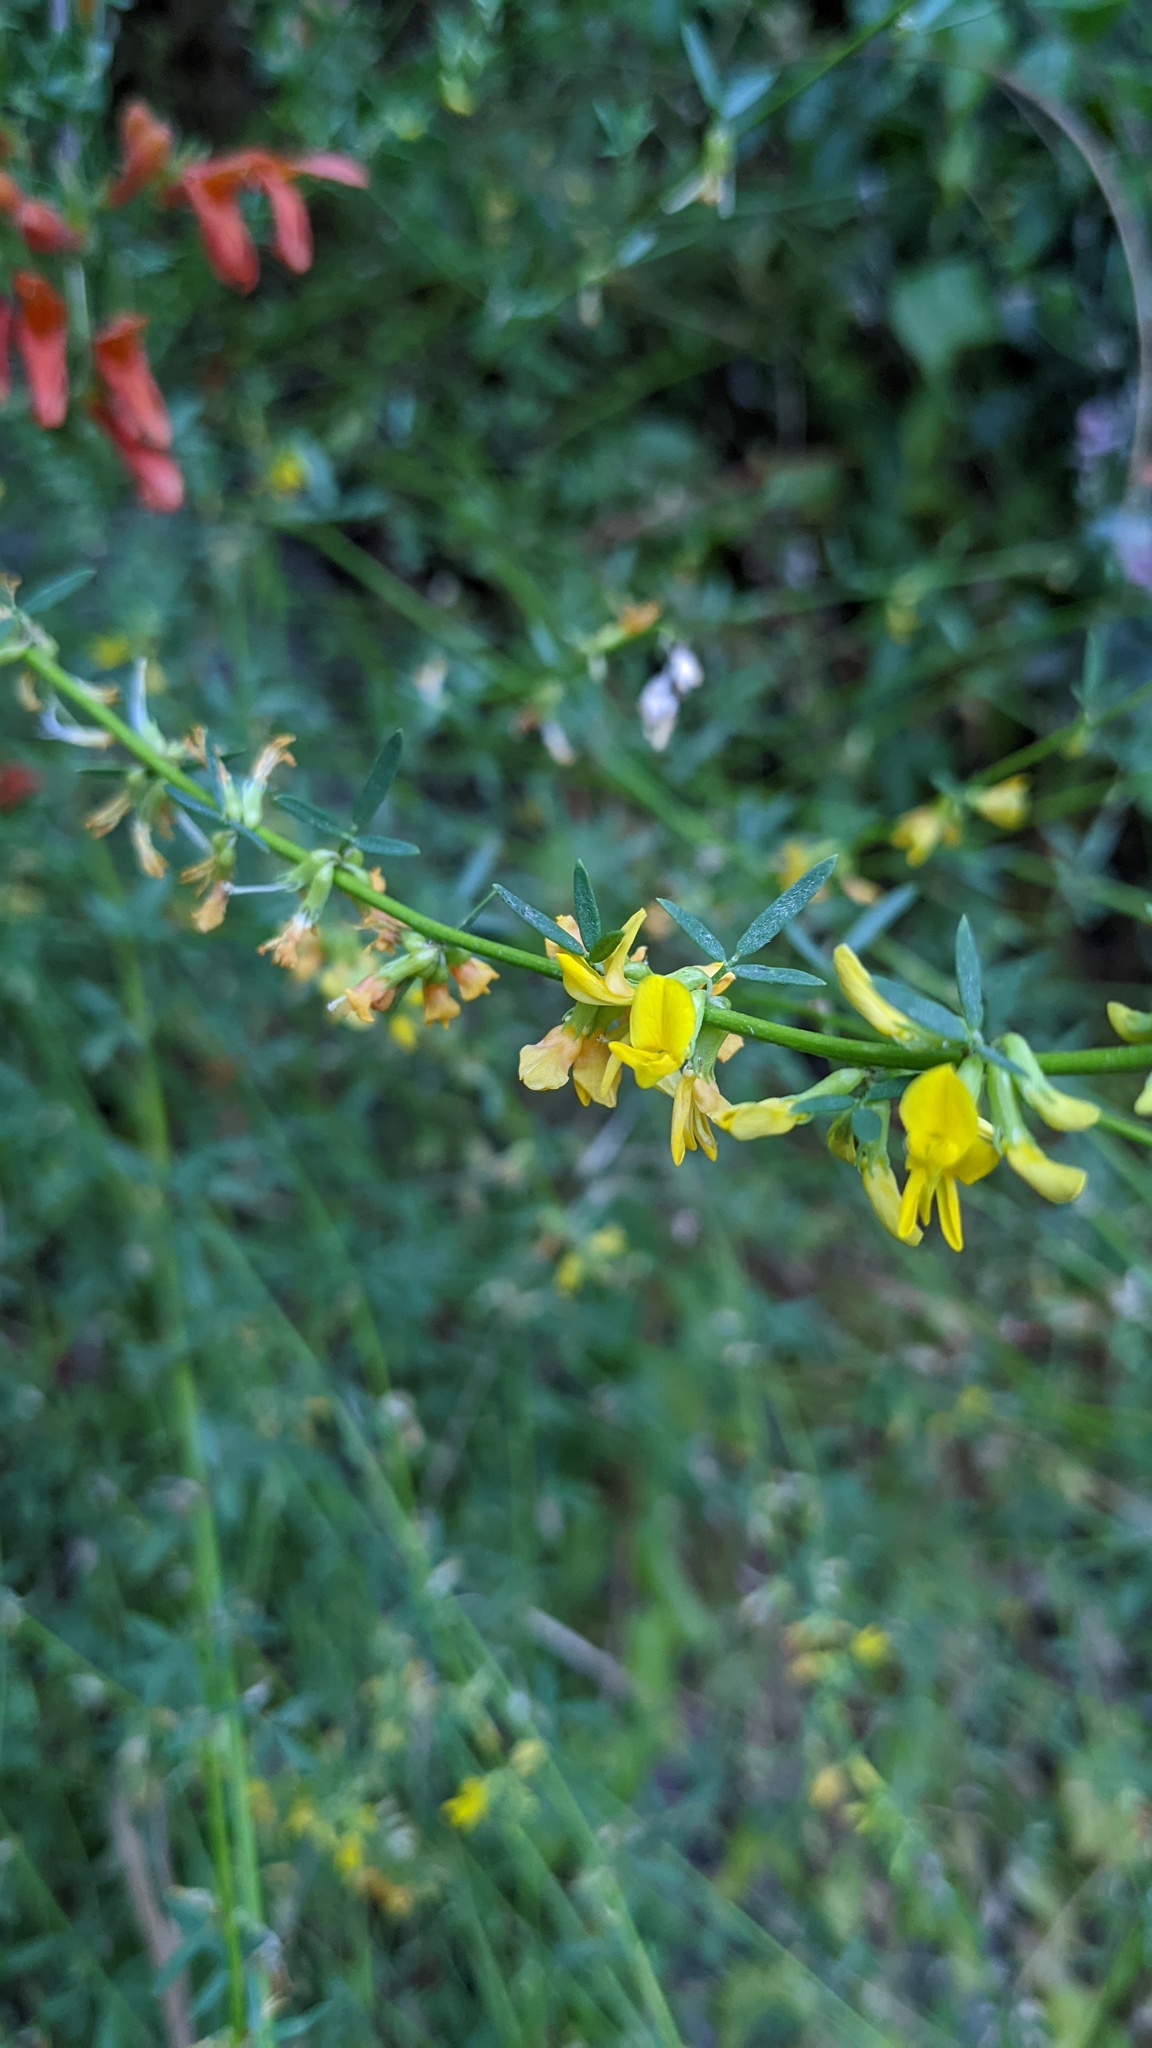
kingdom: Plantae
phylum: Tracheophyta
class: Magnoliopsida
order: Fabales
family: Fabaceae
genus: Acmispon
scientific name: Acmispon glaber
